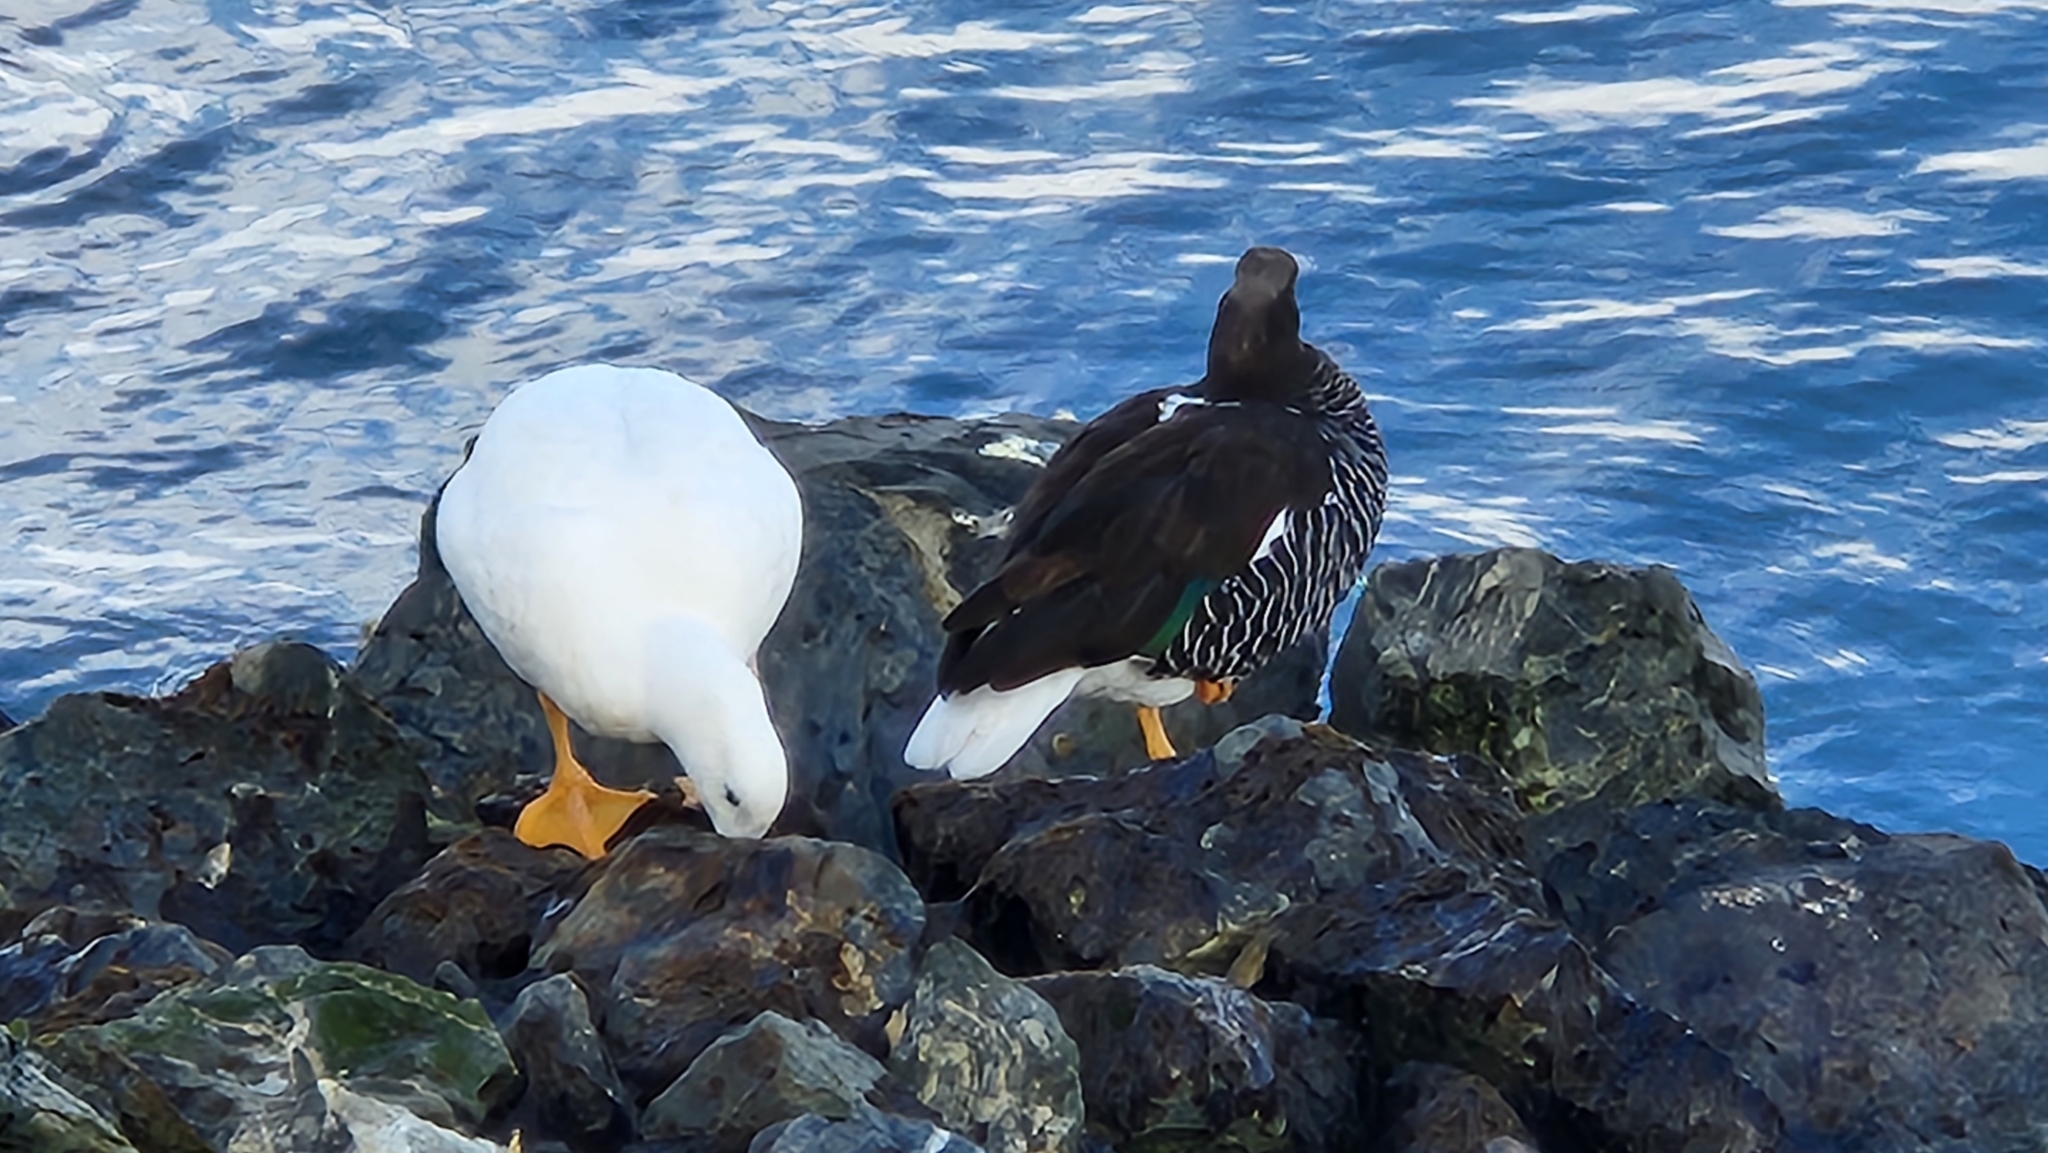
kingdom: Animalia
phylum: Chordata
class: Aves
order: Anseriformes
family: Anatidae
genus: Chloephaga
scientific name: Chloephaga hybrida
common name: Kelp goose
